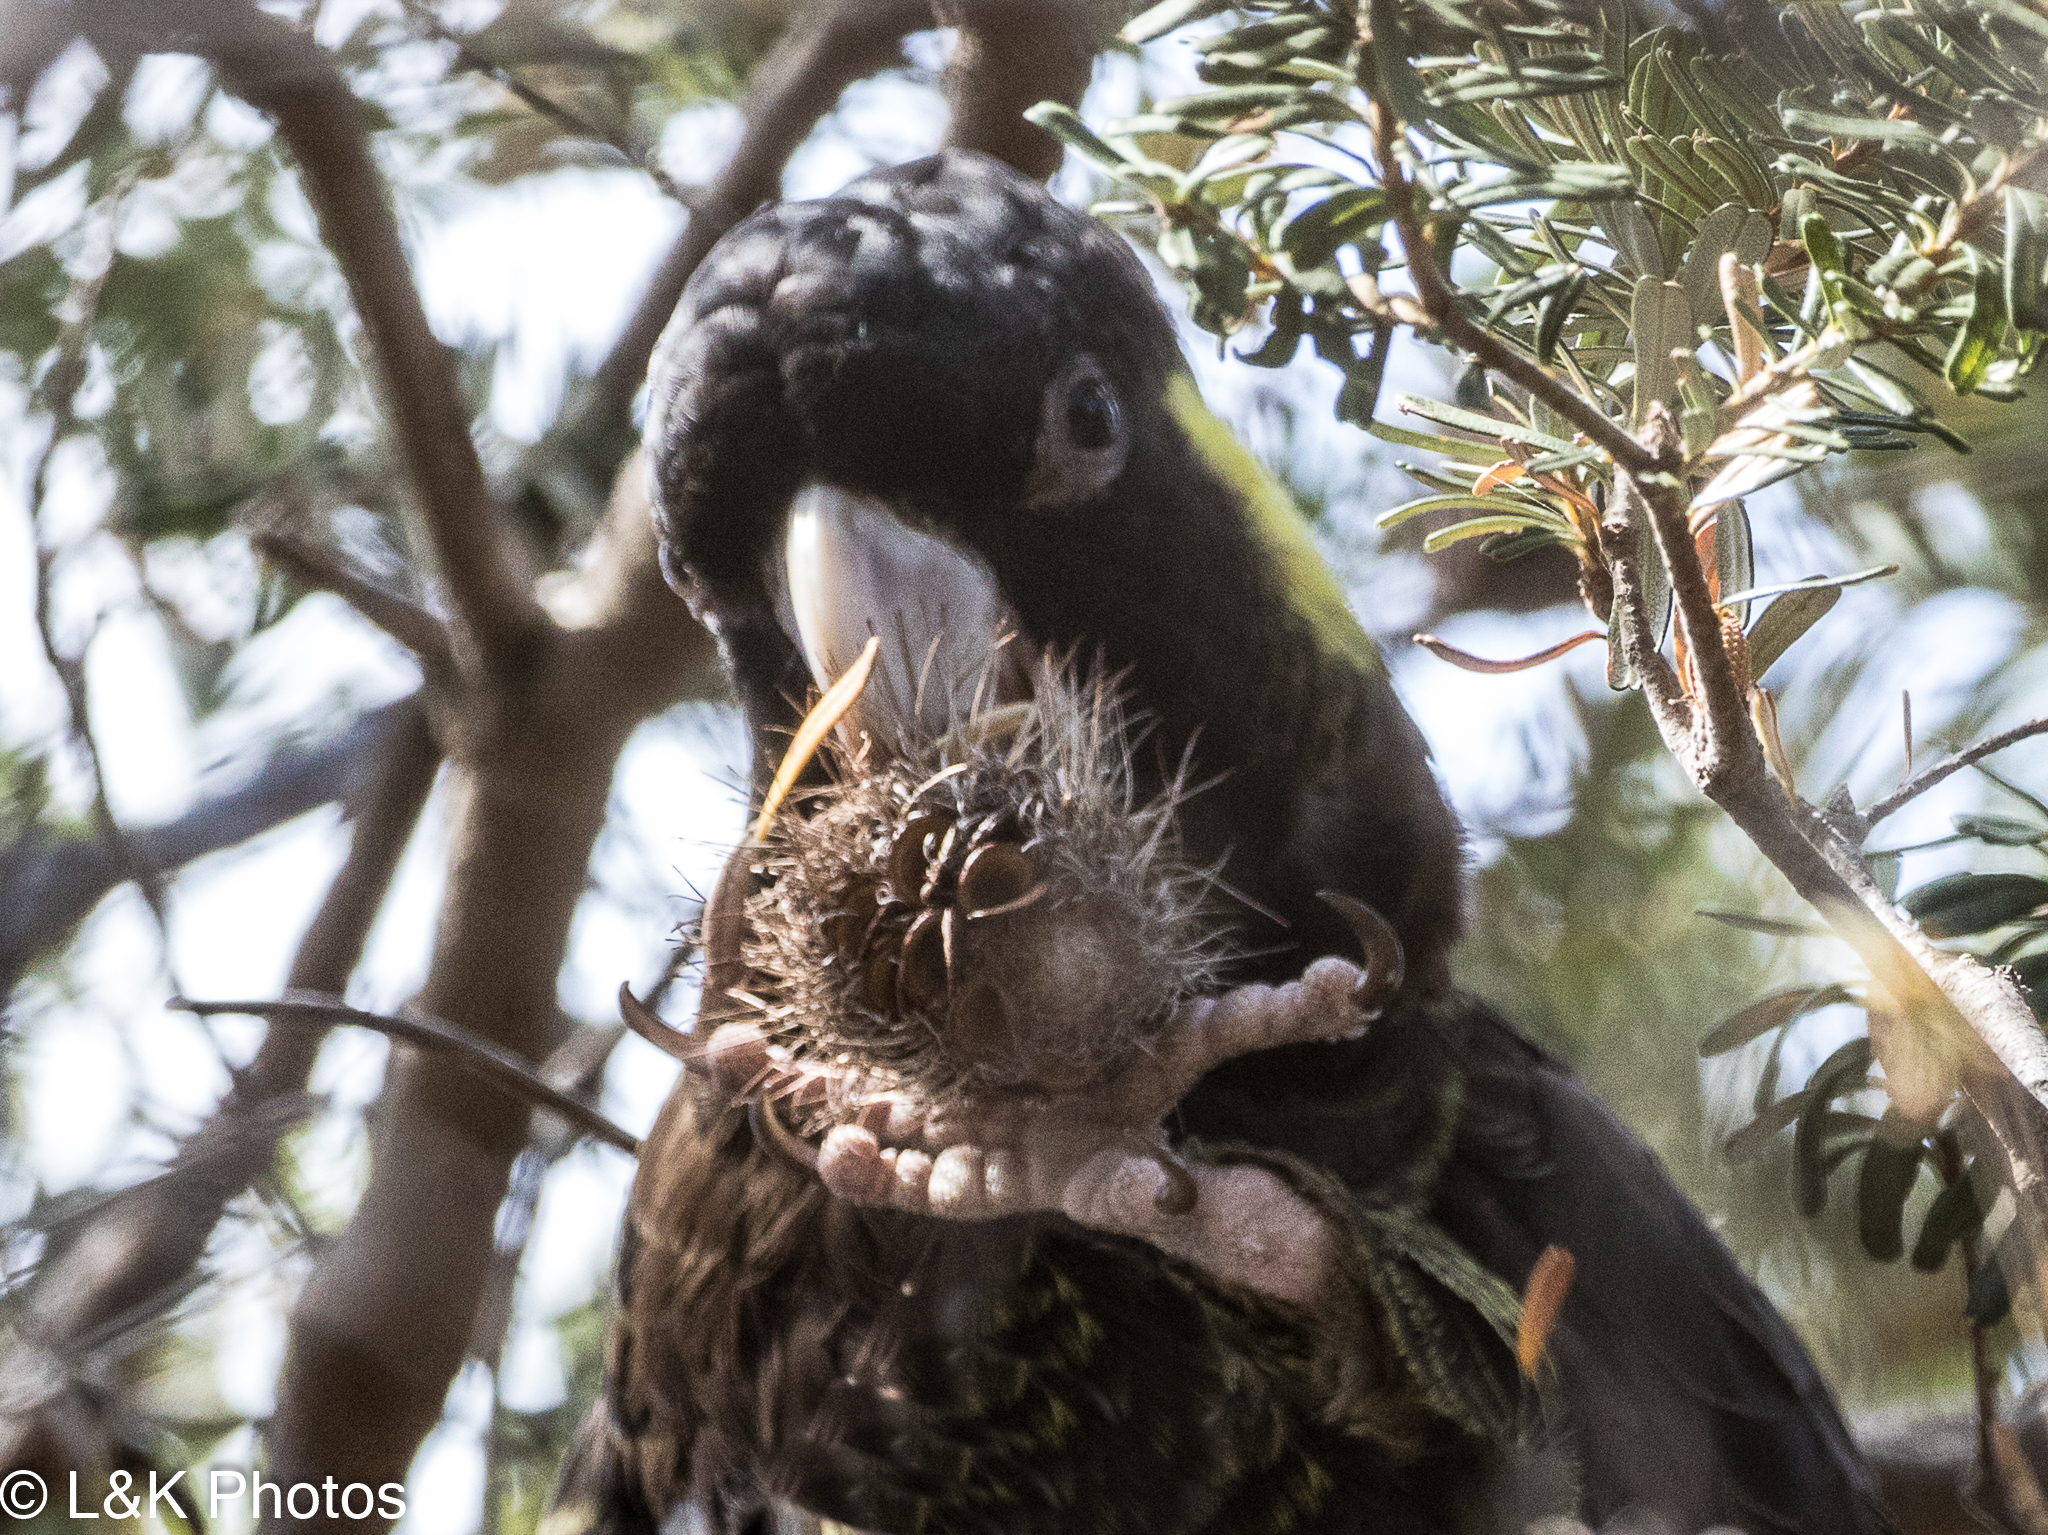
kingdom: Animalia
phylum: Chordata
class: Aves
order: Psittaciformes
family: Cacatuidae
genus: Zanda
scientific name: Zanda funerea
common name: Yellow-tailed black-cockatoo
